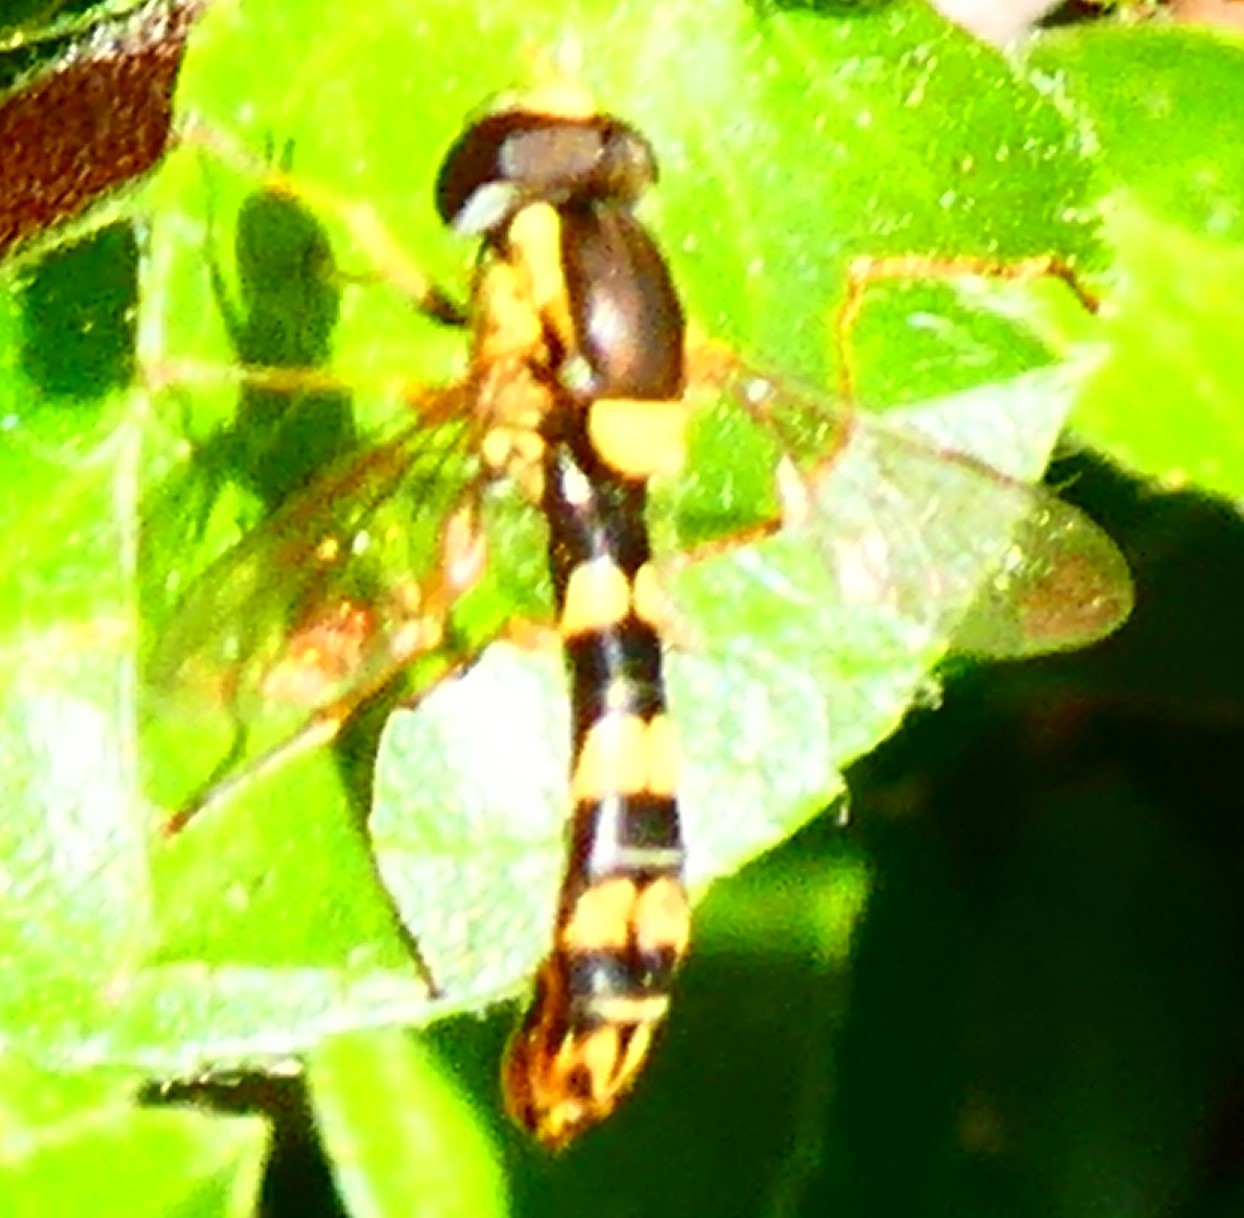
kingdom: Animalia
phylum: Arthropoda
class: Insecta
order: Diptera
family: Syrphidae
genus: Sphaerophoria
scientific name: Sphaerophoria scripta
